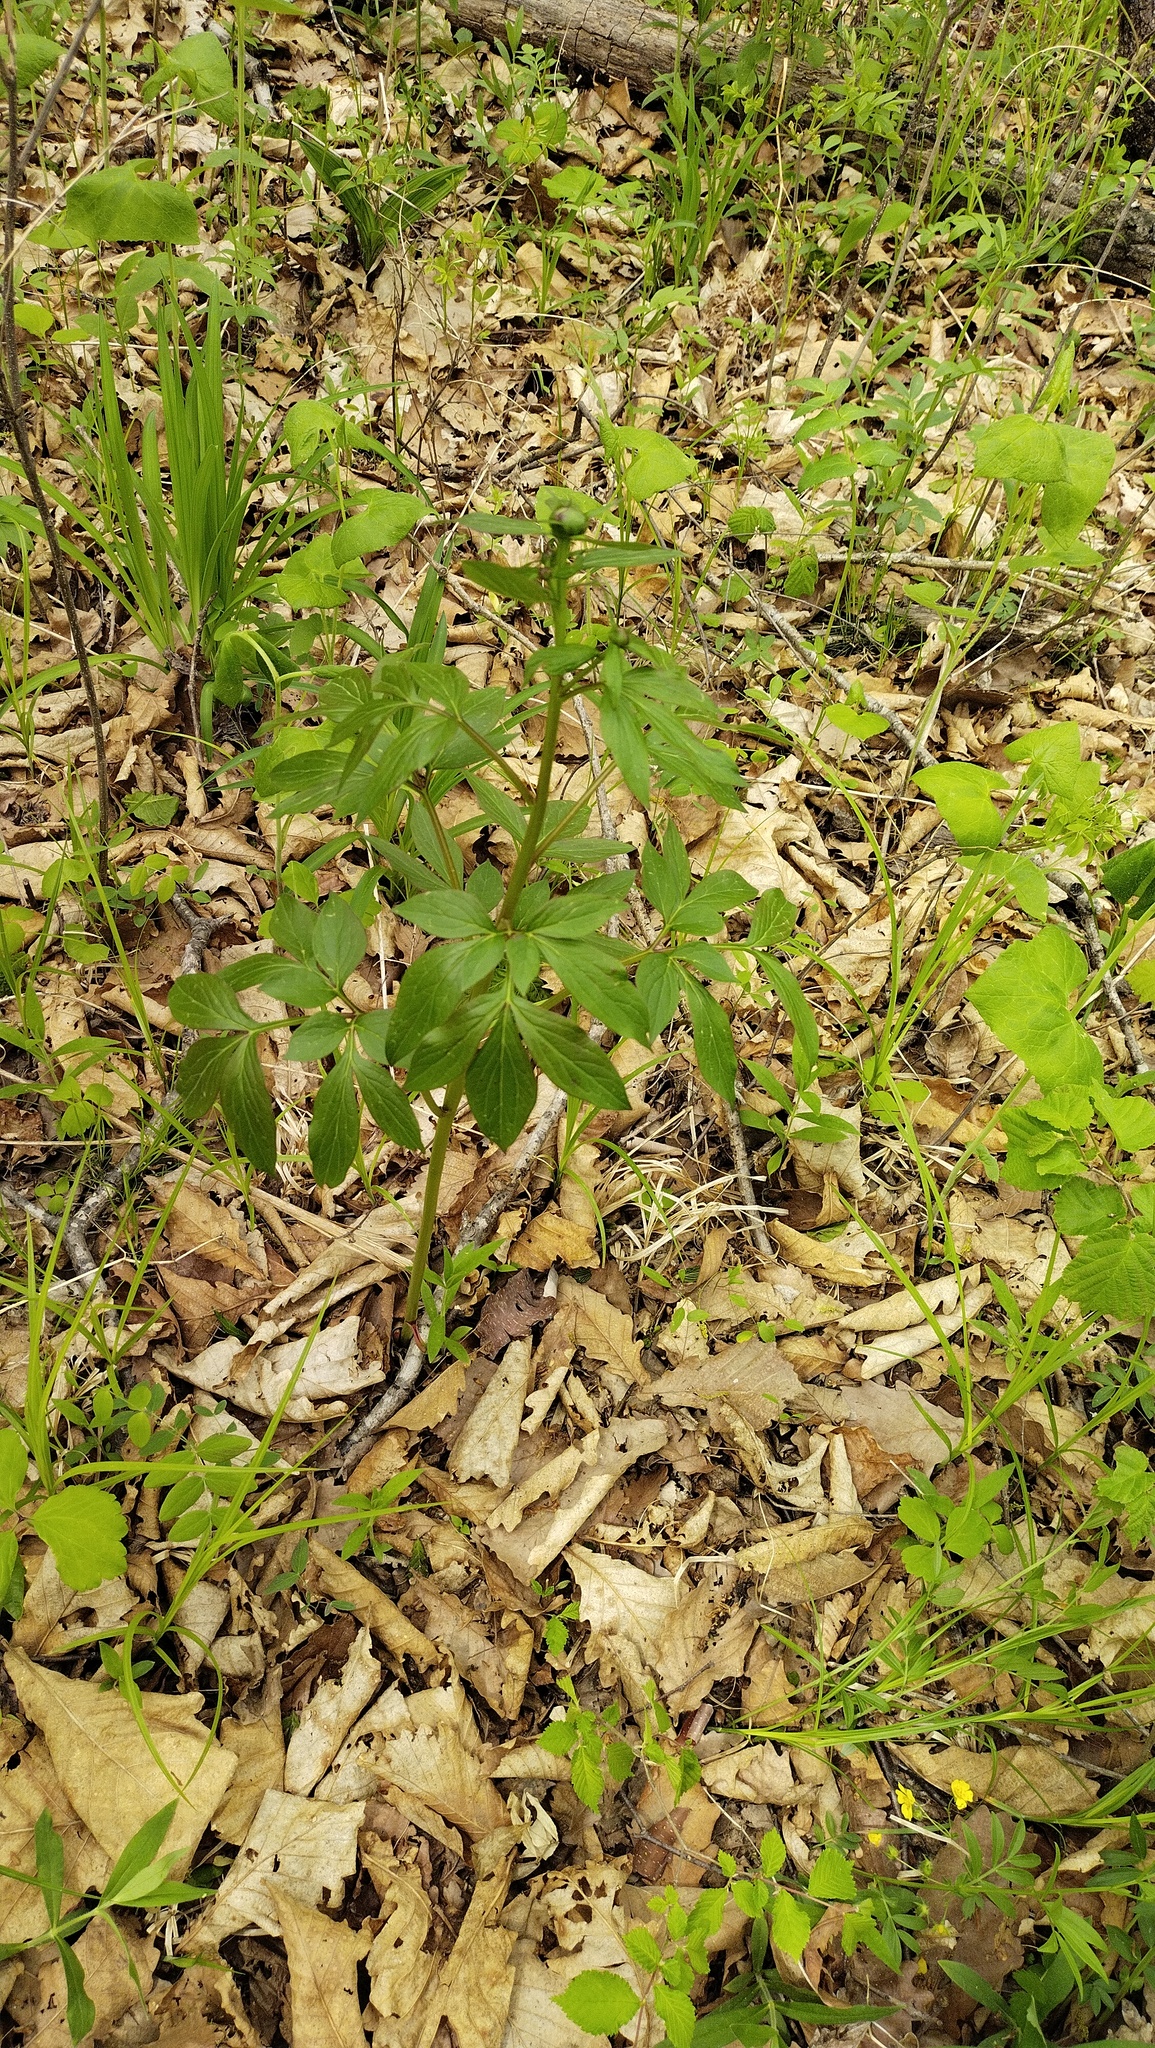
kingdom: Plantae
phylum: Tracheophyta
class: Magnoliopsida
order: Saxifragales
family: Paeoniaceae
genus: Paeonia
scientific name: Paeonia lactiflora
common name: Chinese peony
